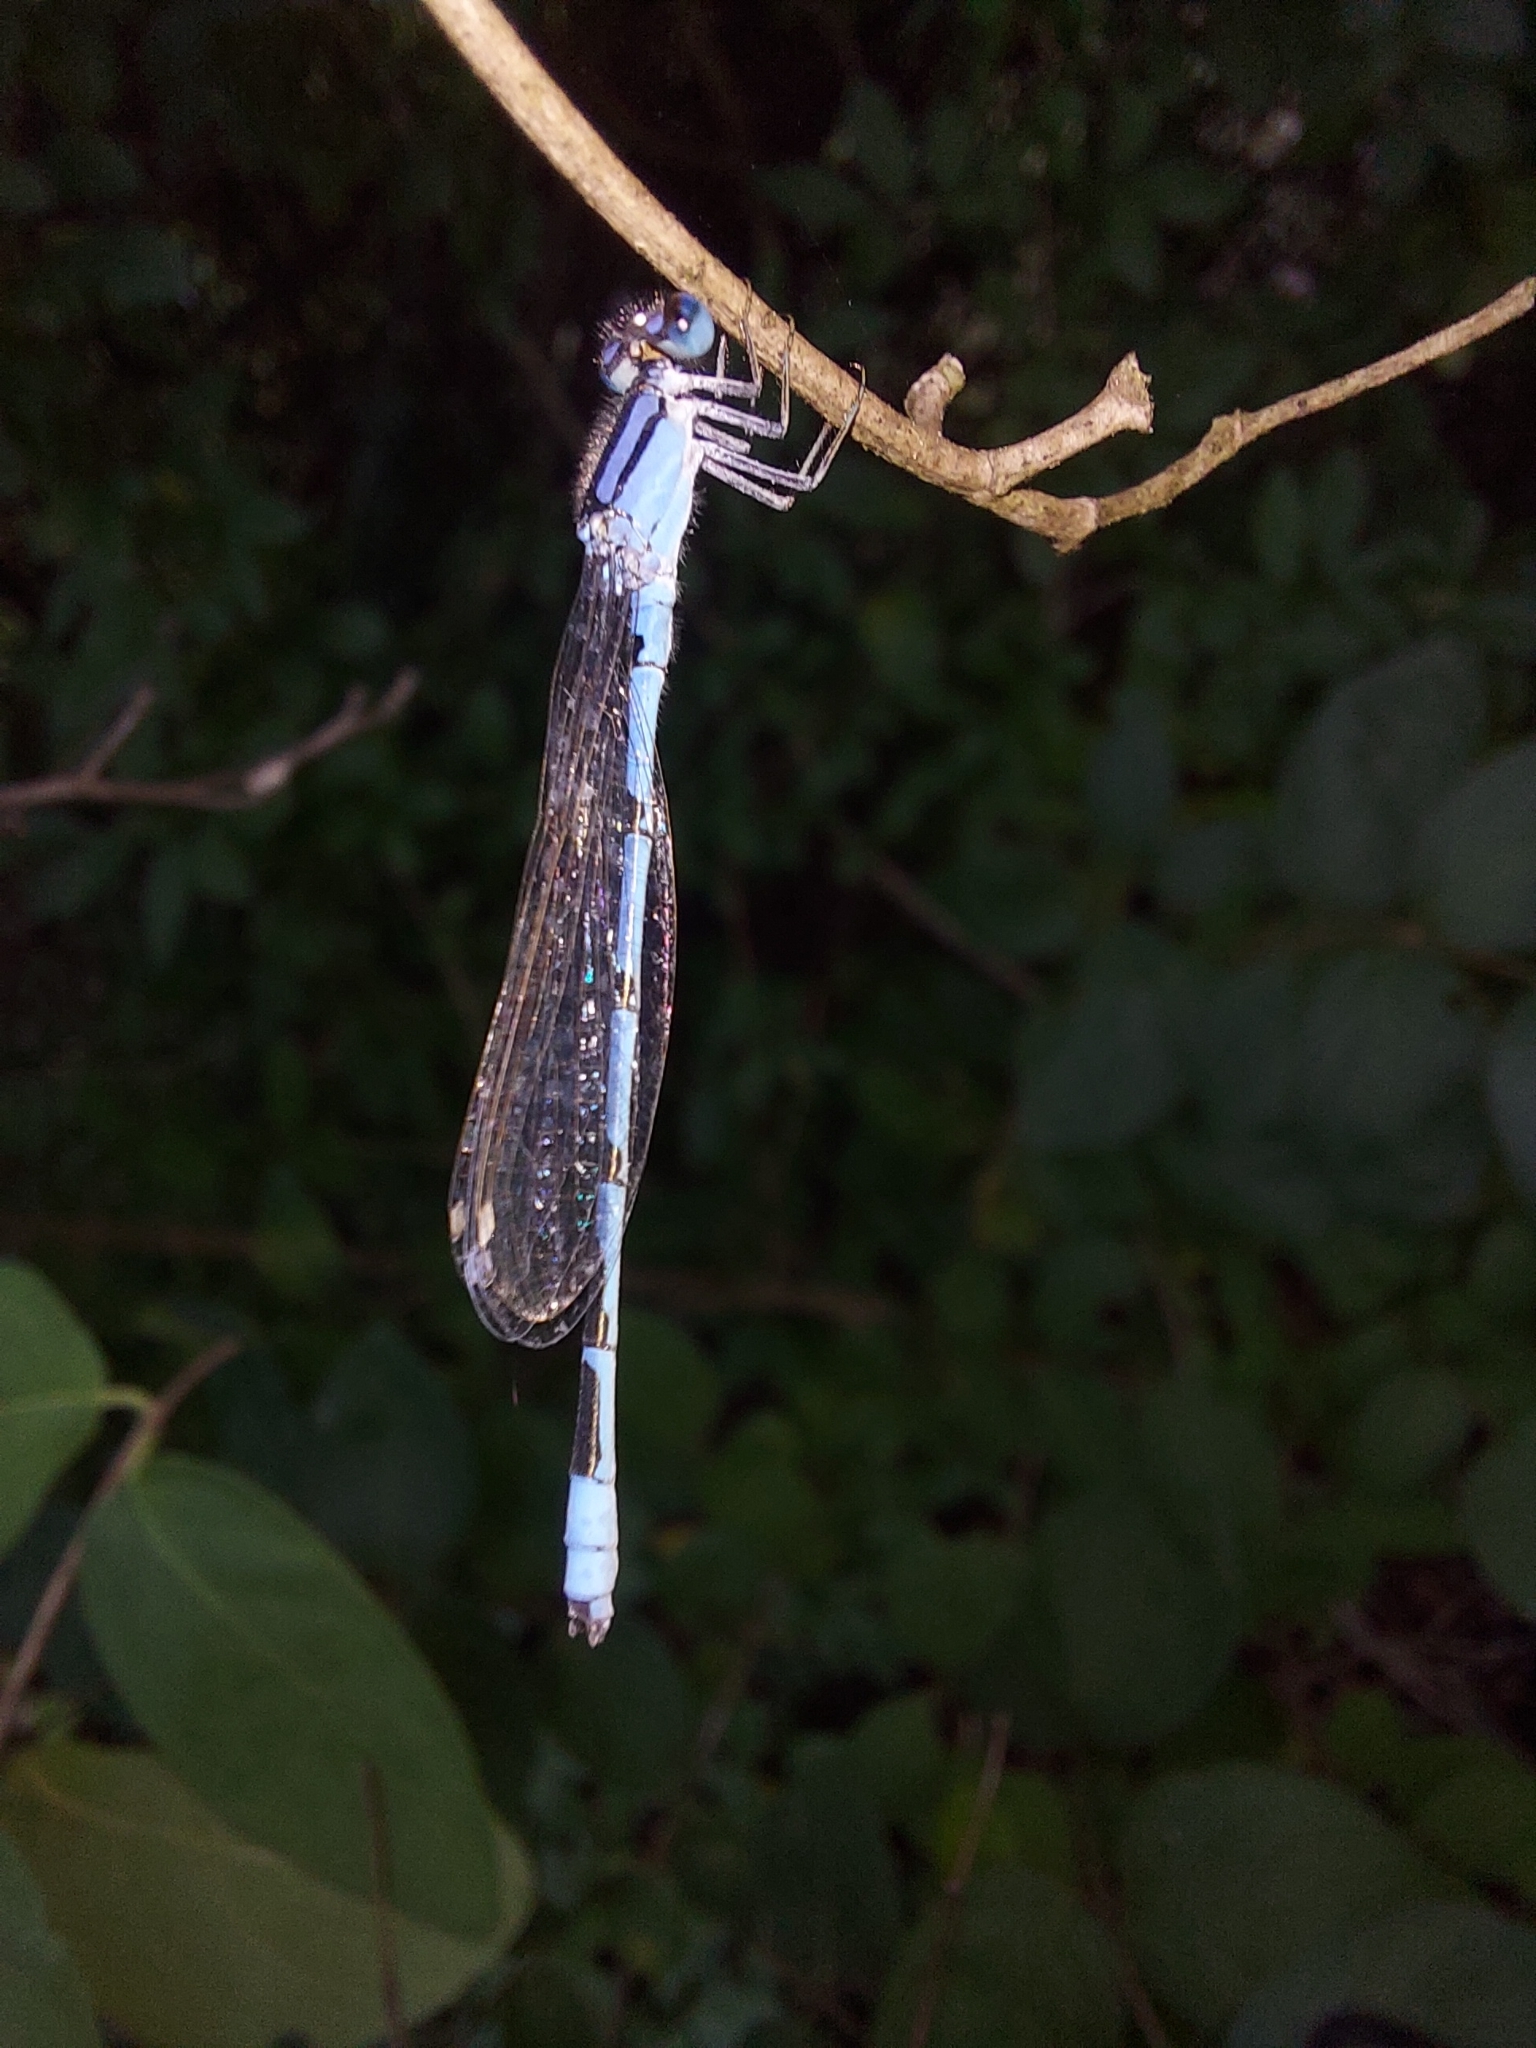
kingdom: Animalia
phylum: Arthropoda
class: Insecta
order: Odonata
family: Coenagrionidae
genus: Enallagma
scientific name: Enallagma civile
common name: Damselfly
